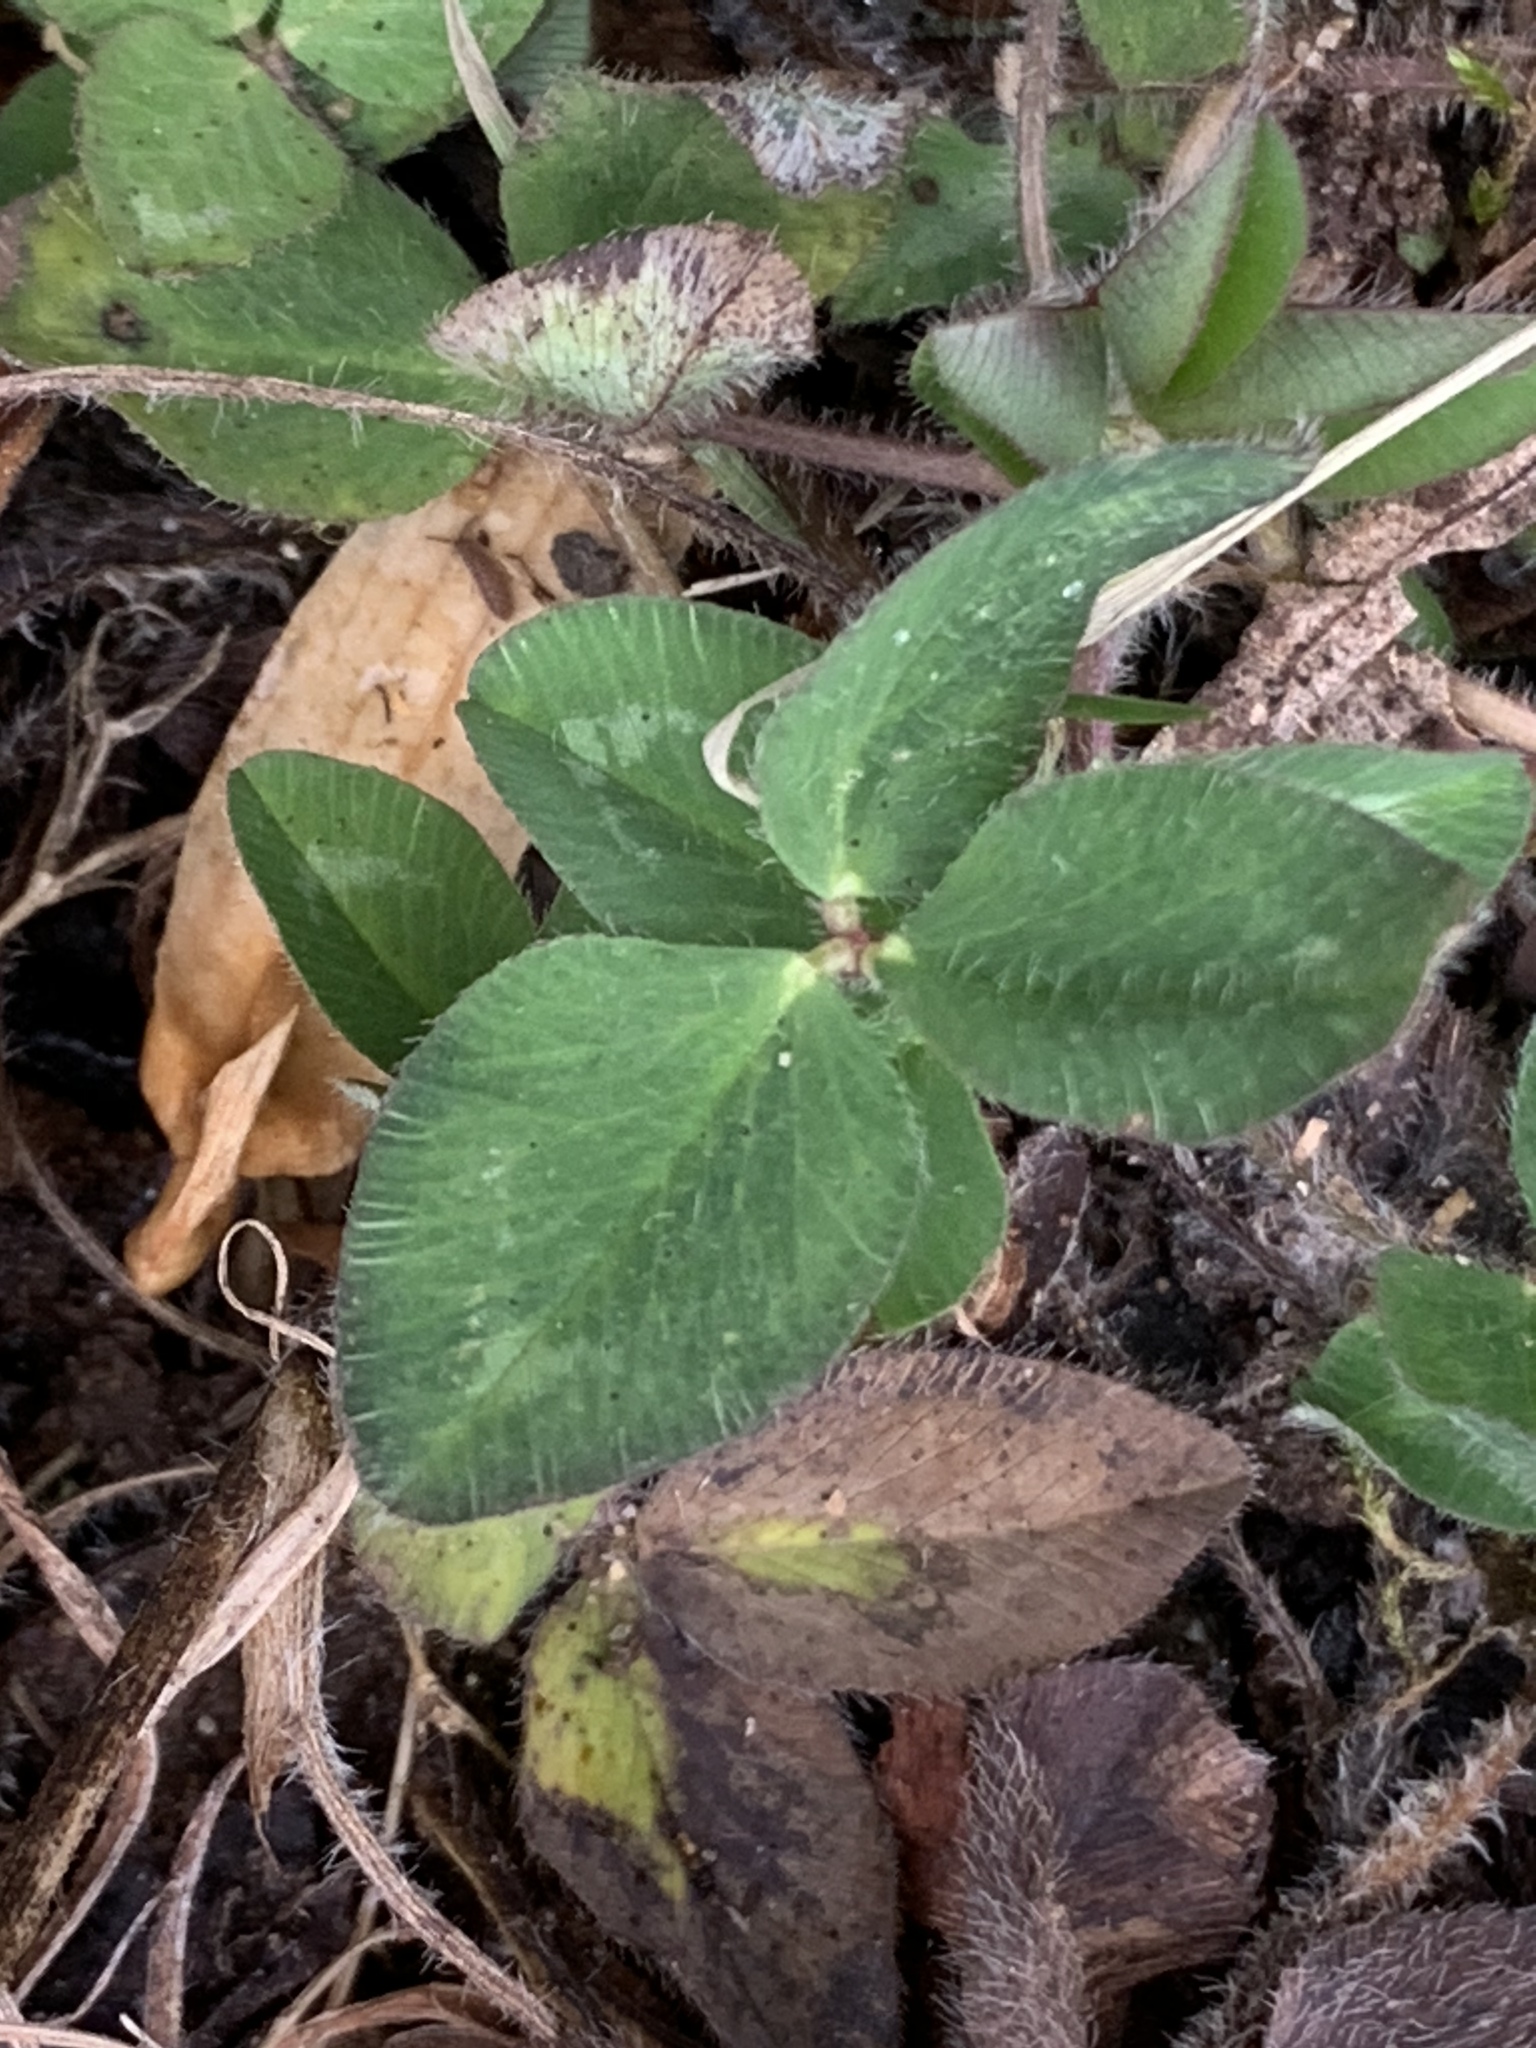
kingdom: Plantae
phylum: Tracheophyta
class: Magnoliopsida
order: Fabales
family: Fabaceae
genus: Trifolium
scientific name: Trifolium pratense
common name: Red clover
